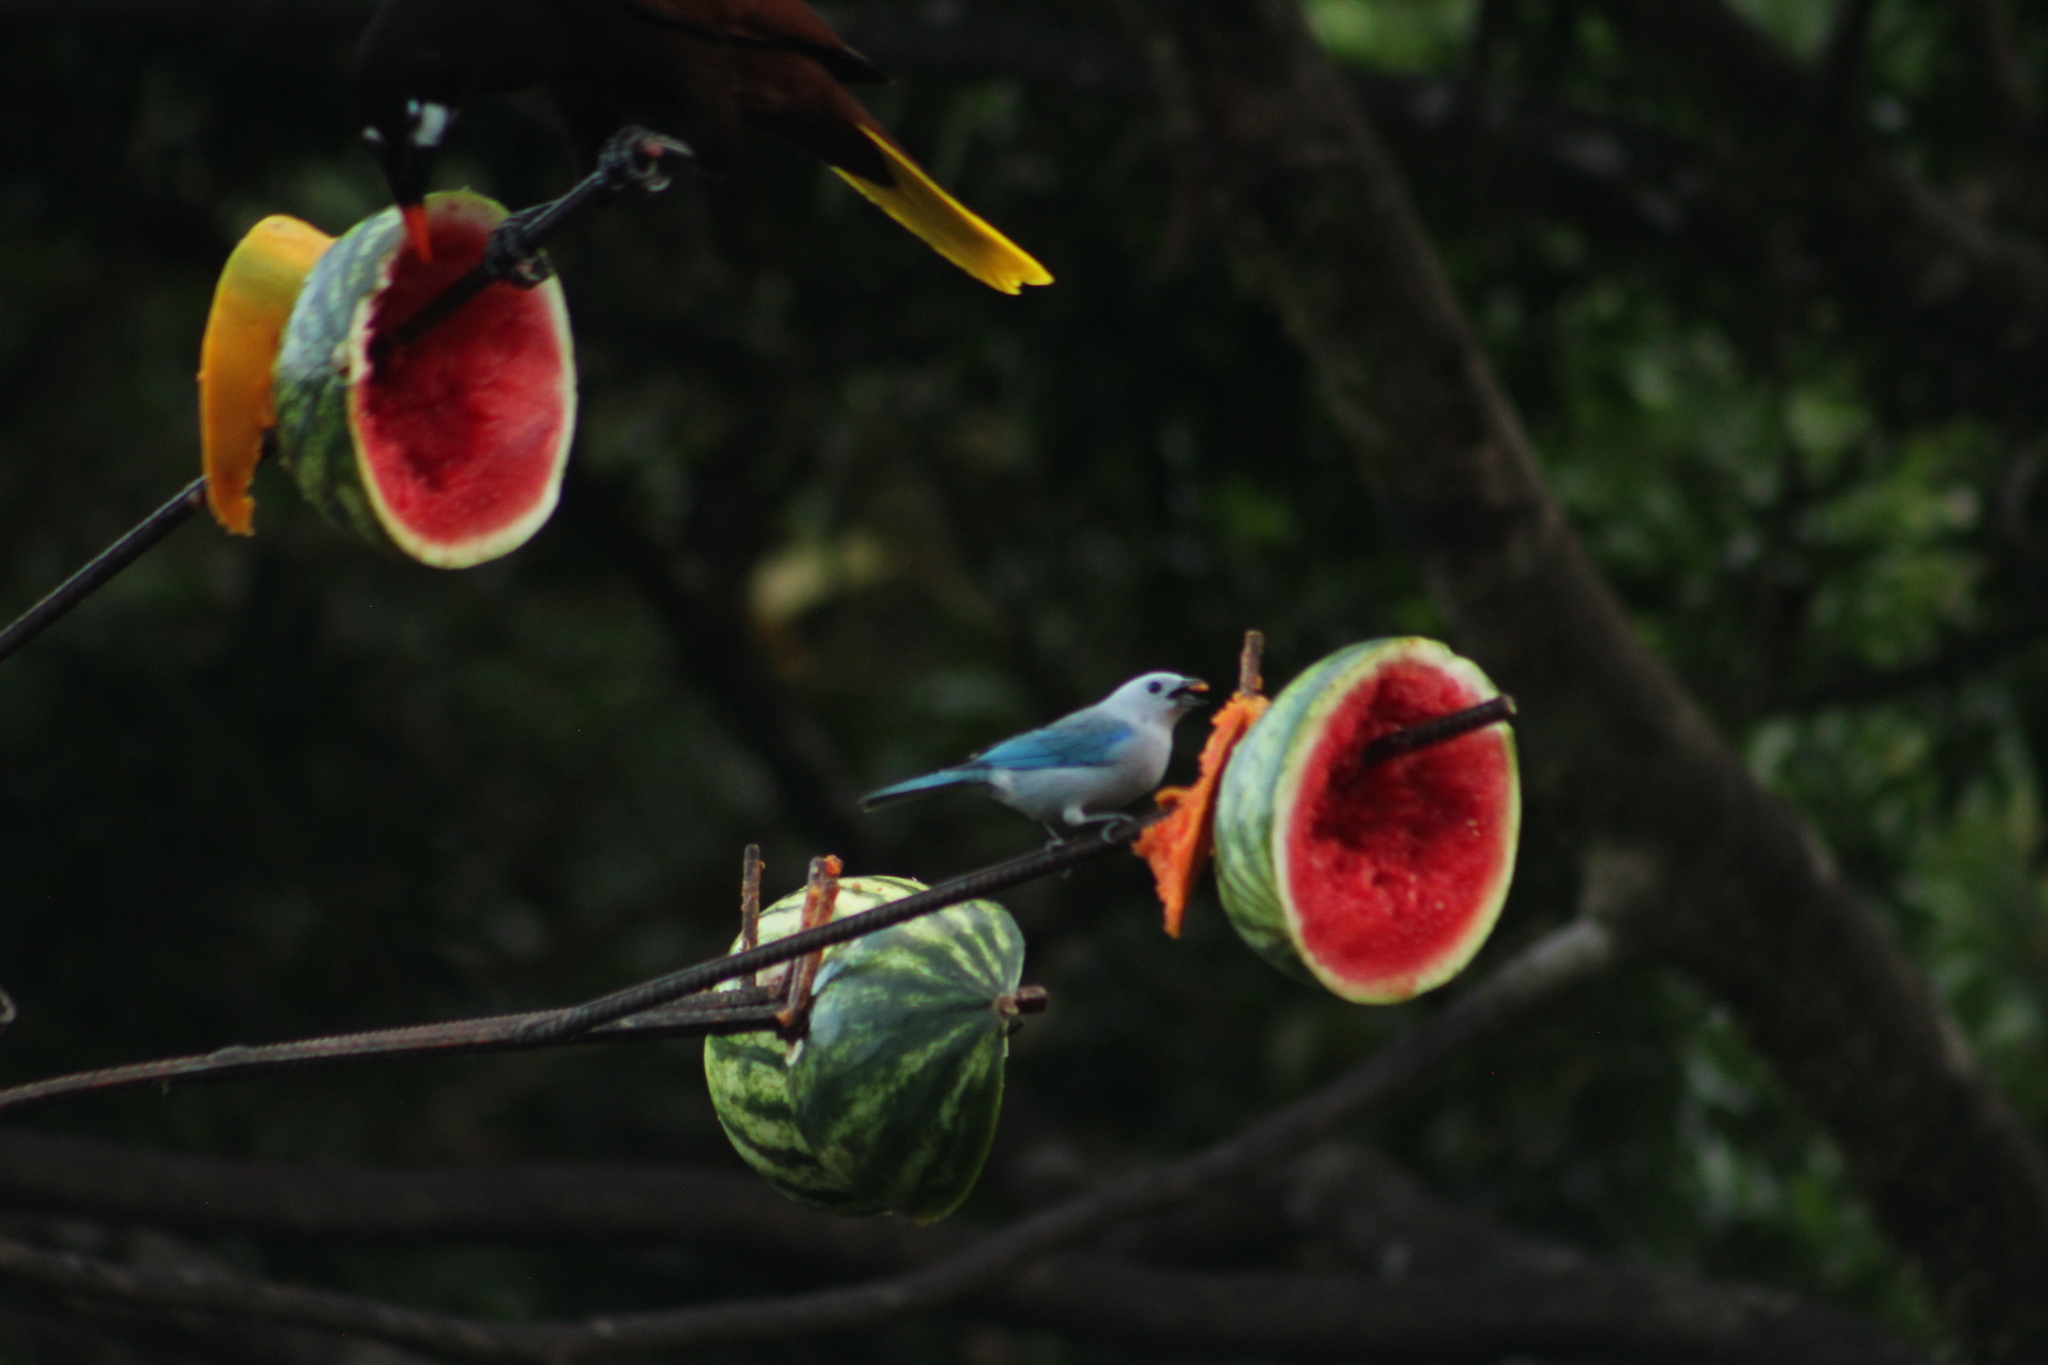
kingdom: Animalia
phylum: Chordata
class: Aves
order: Passeriformes
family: Thraupidae
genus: Thraupis
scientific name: Thraupis episcopus
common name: Blue-grey tanager
